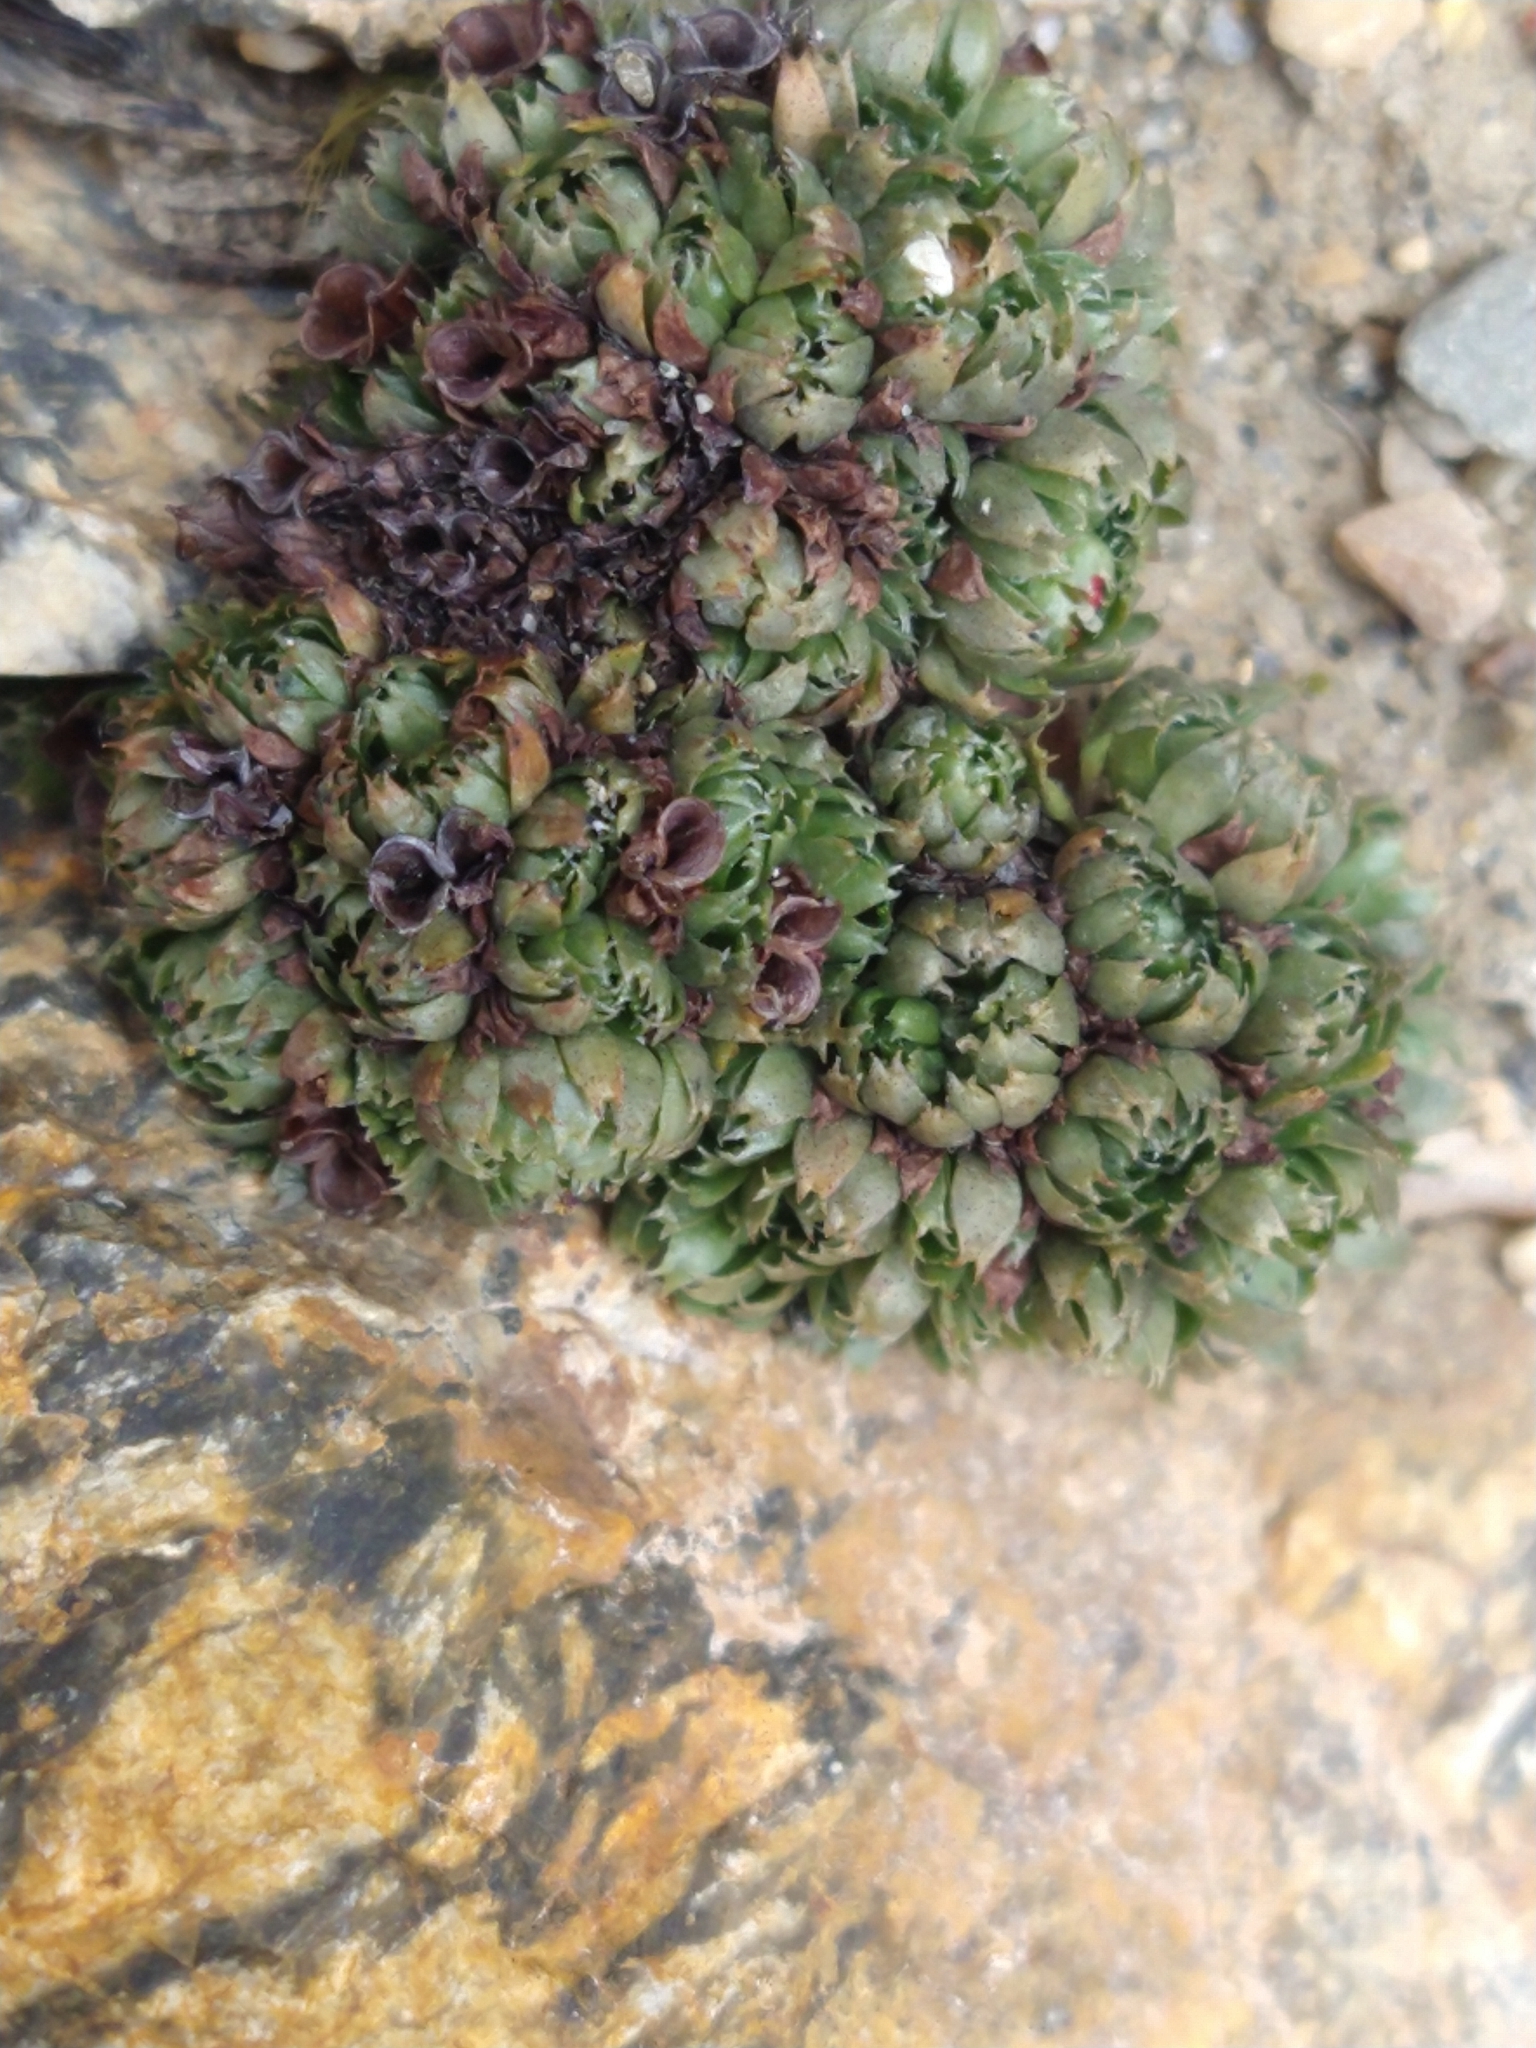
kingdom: Plantae
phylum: Tracheophyta
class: Magnoliopsida
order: Saxifragales
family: Saxifragaceae
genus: Saxifraga
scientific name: Saxifraga bicuspidata
